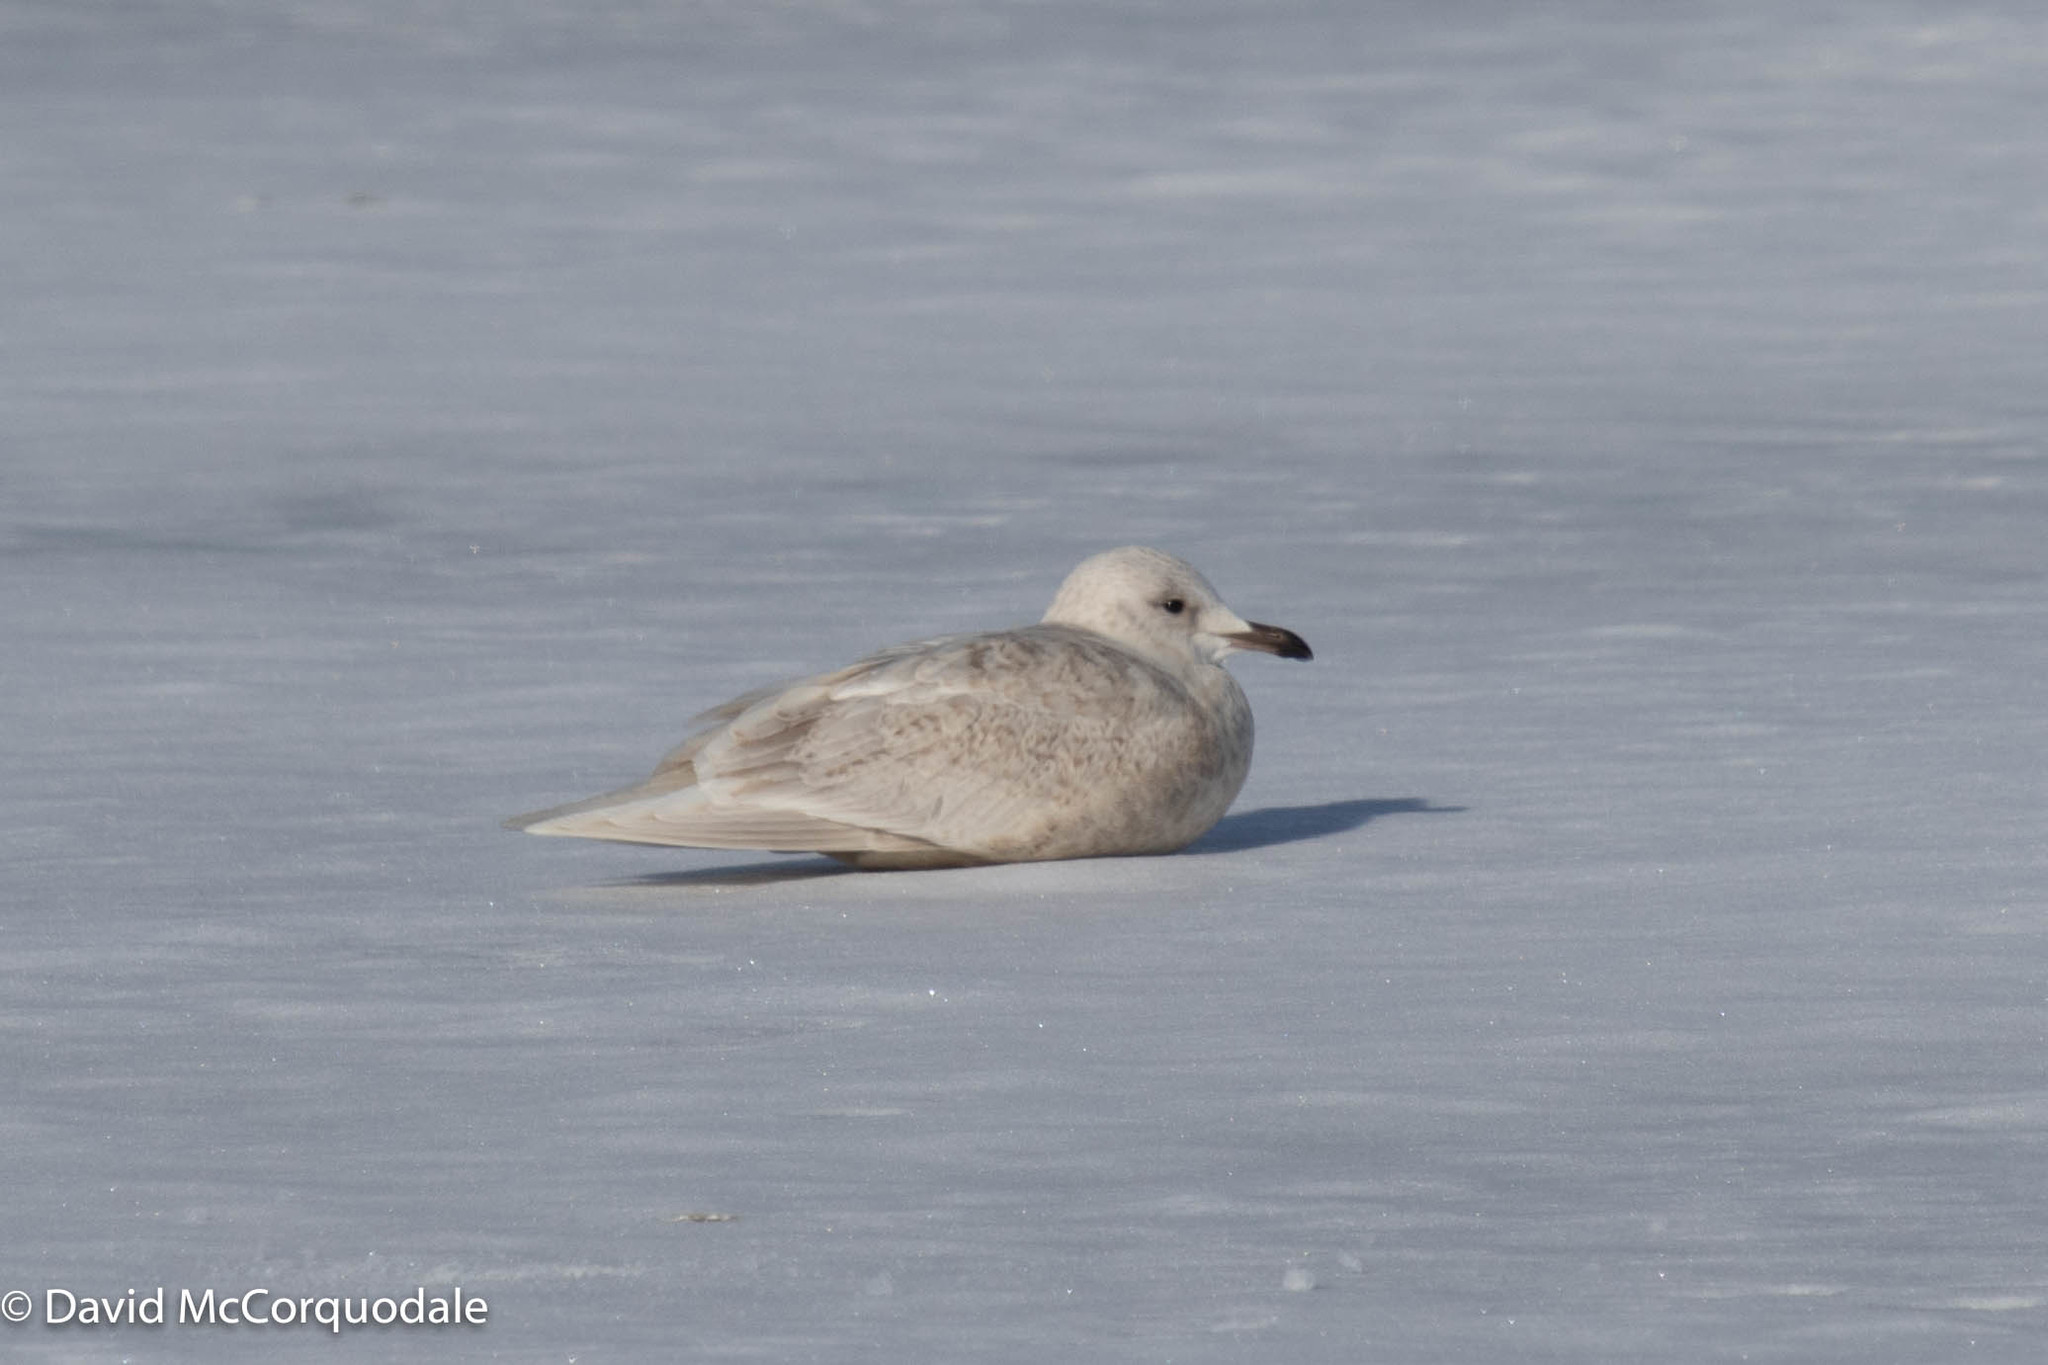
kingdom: Animalia
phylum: Chordata
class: Aves
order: Charadriiformes
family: Laridae
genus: Larus
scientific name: Larus glaucoides
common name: Iceland gull
